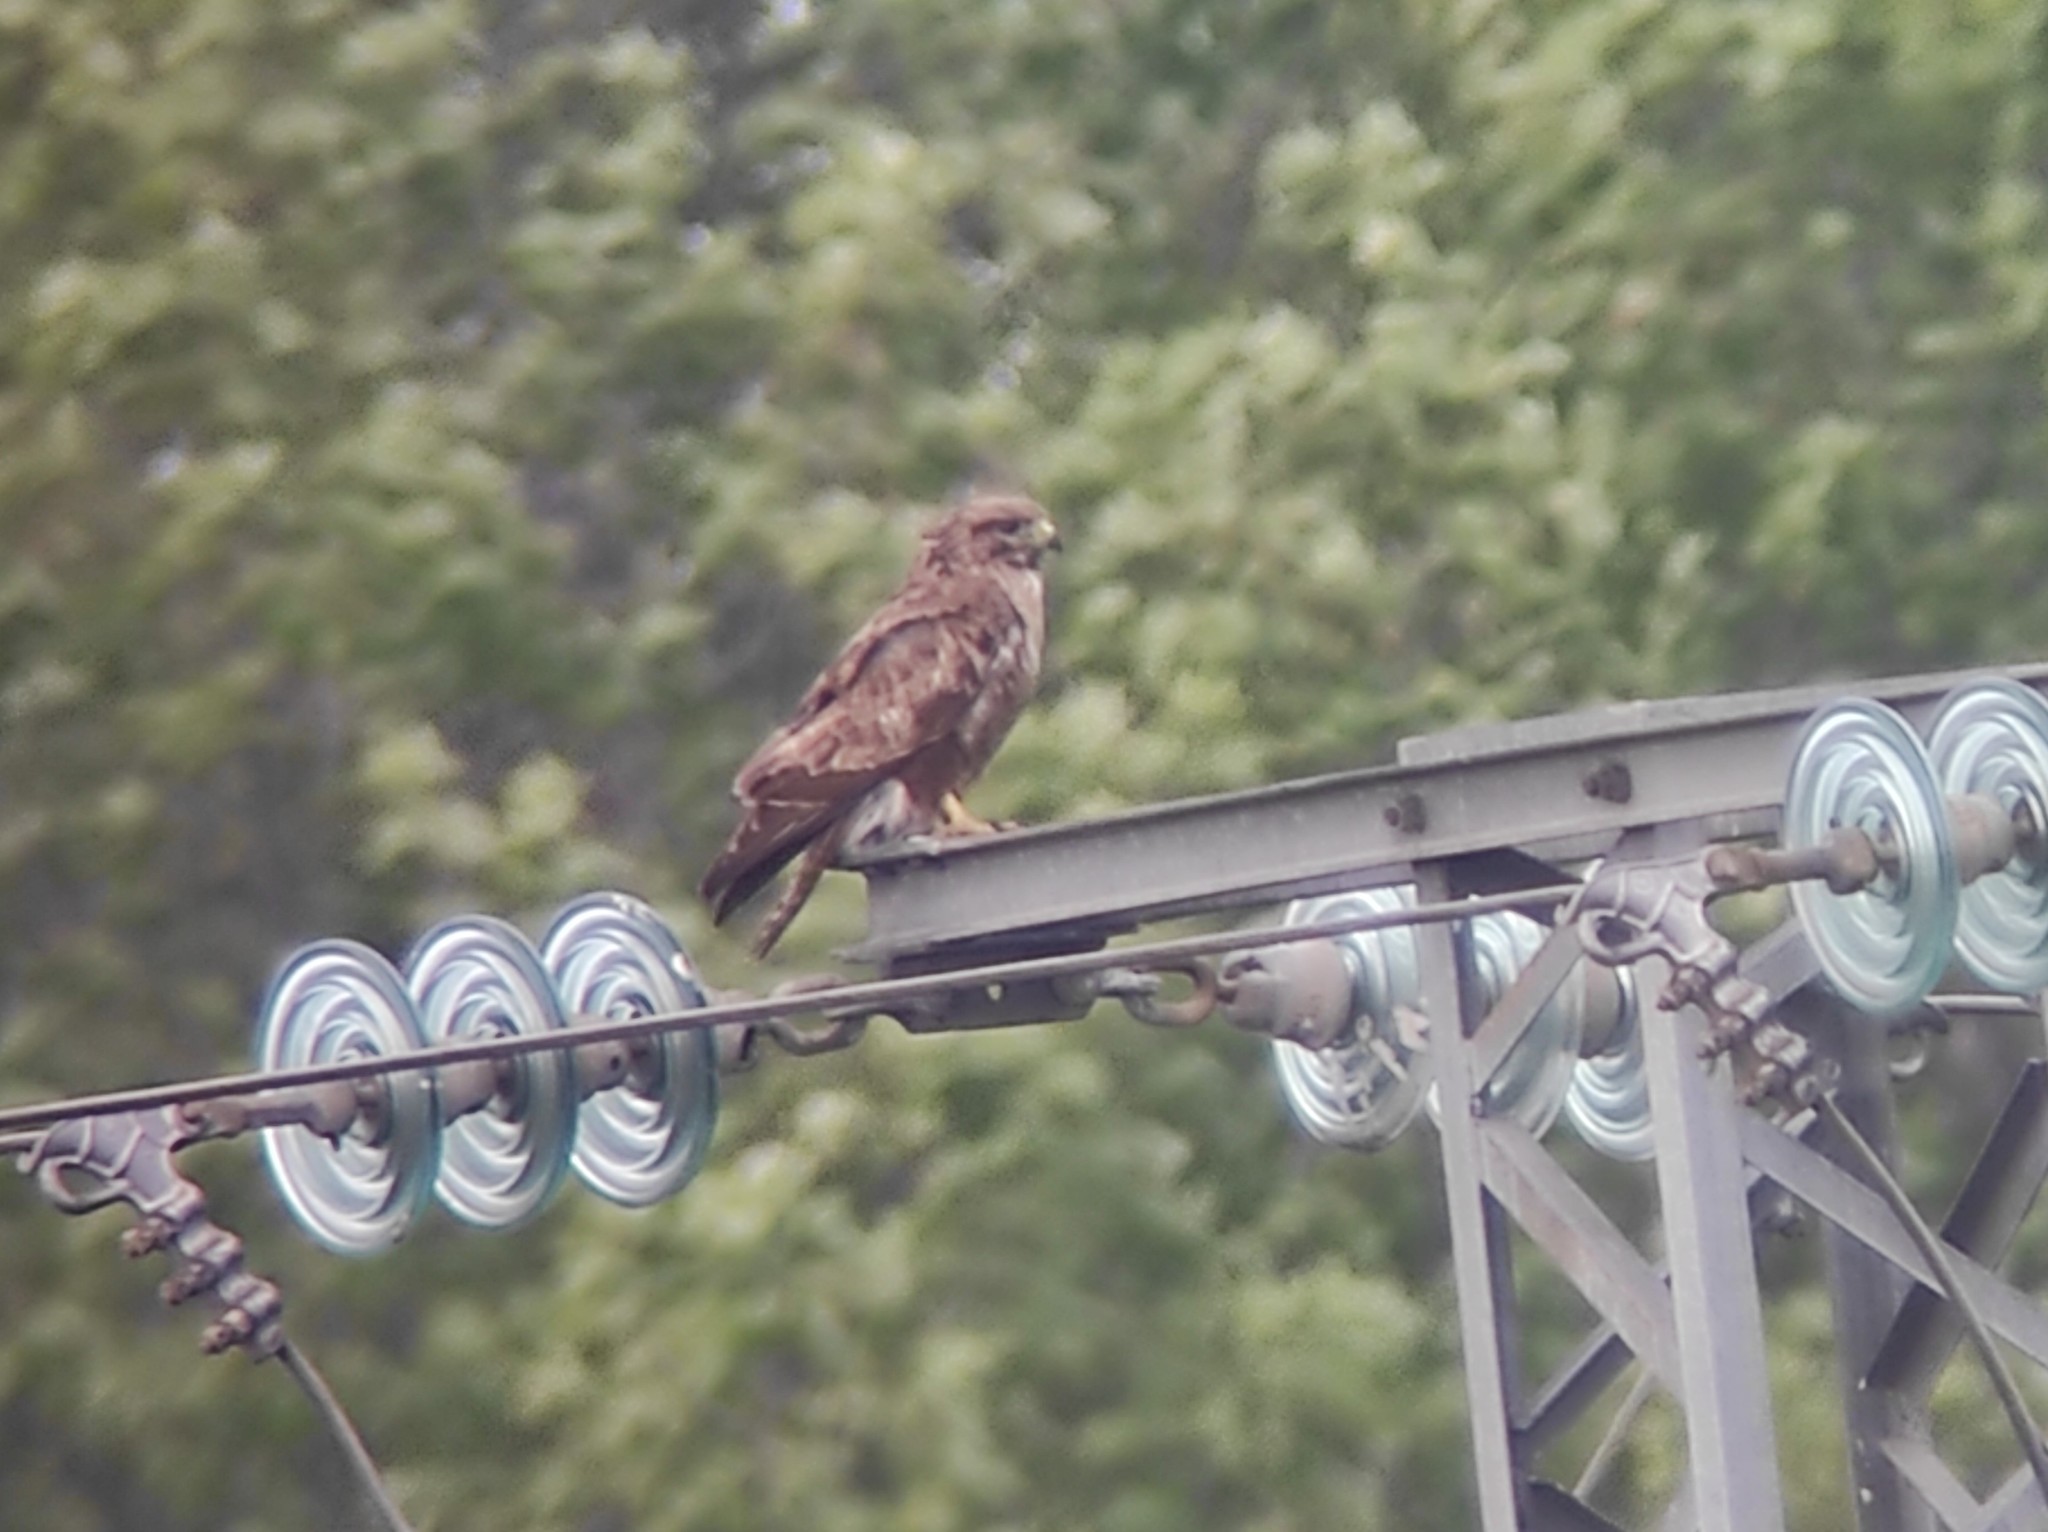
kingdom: Animalia
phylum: Chordata
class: Aves
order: Accipitriformes
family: Accipitridae
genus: Buteo
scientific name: Buteo buteo
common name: Common buzzard
